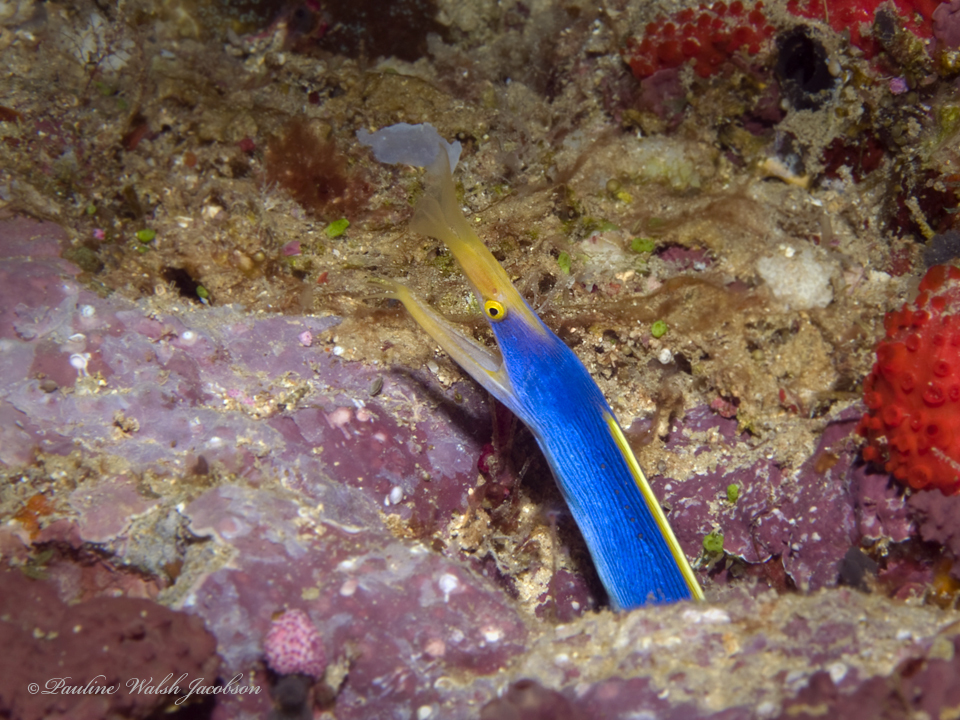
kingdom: Animalia
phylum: Chordata
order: Anguilliformes
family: Muraenidae
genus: Rhinomuraena
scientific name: Rhinomuraena quaesita
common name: Ribbon eel
